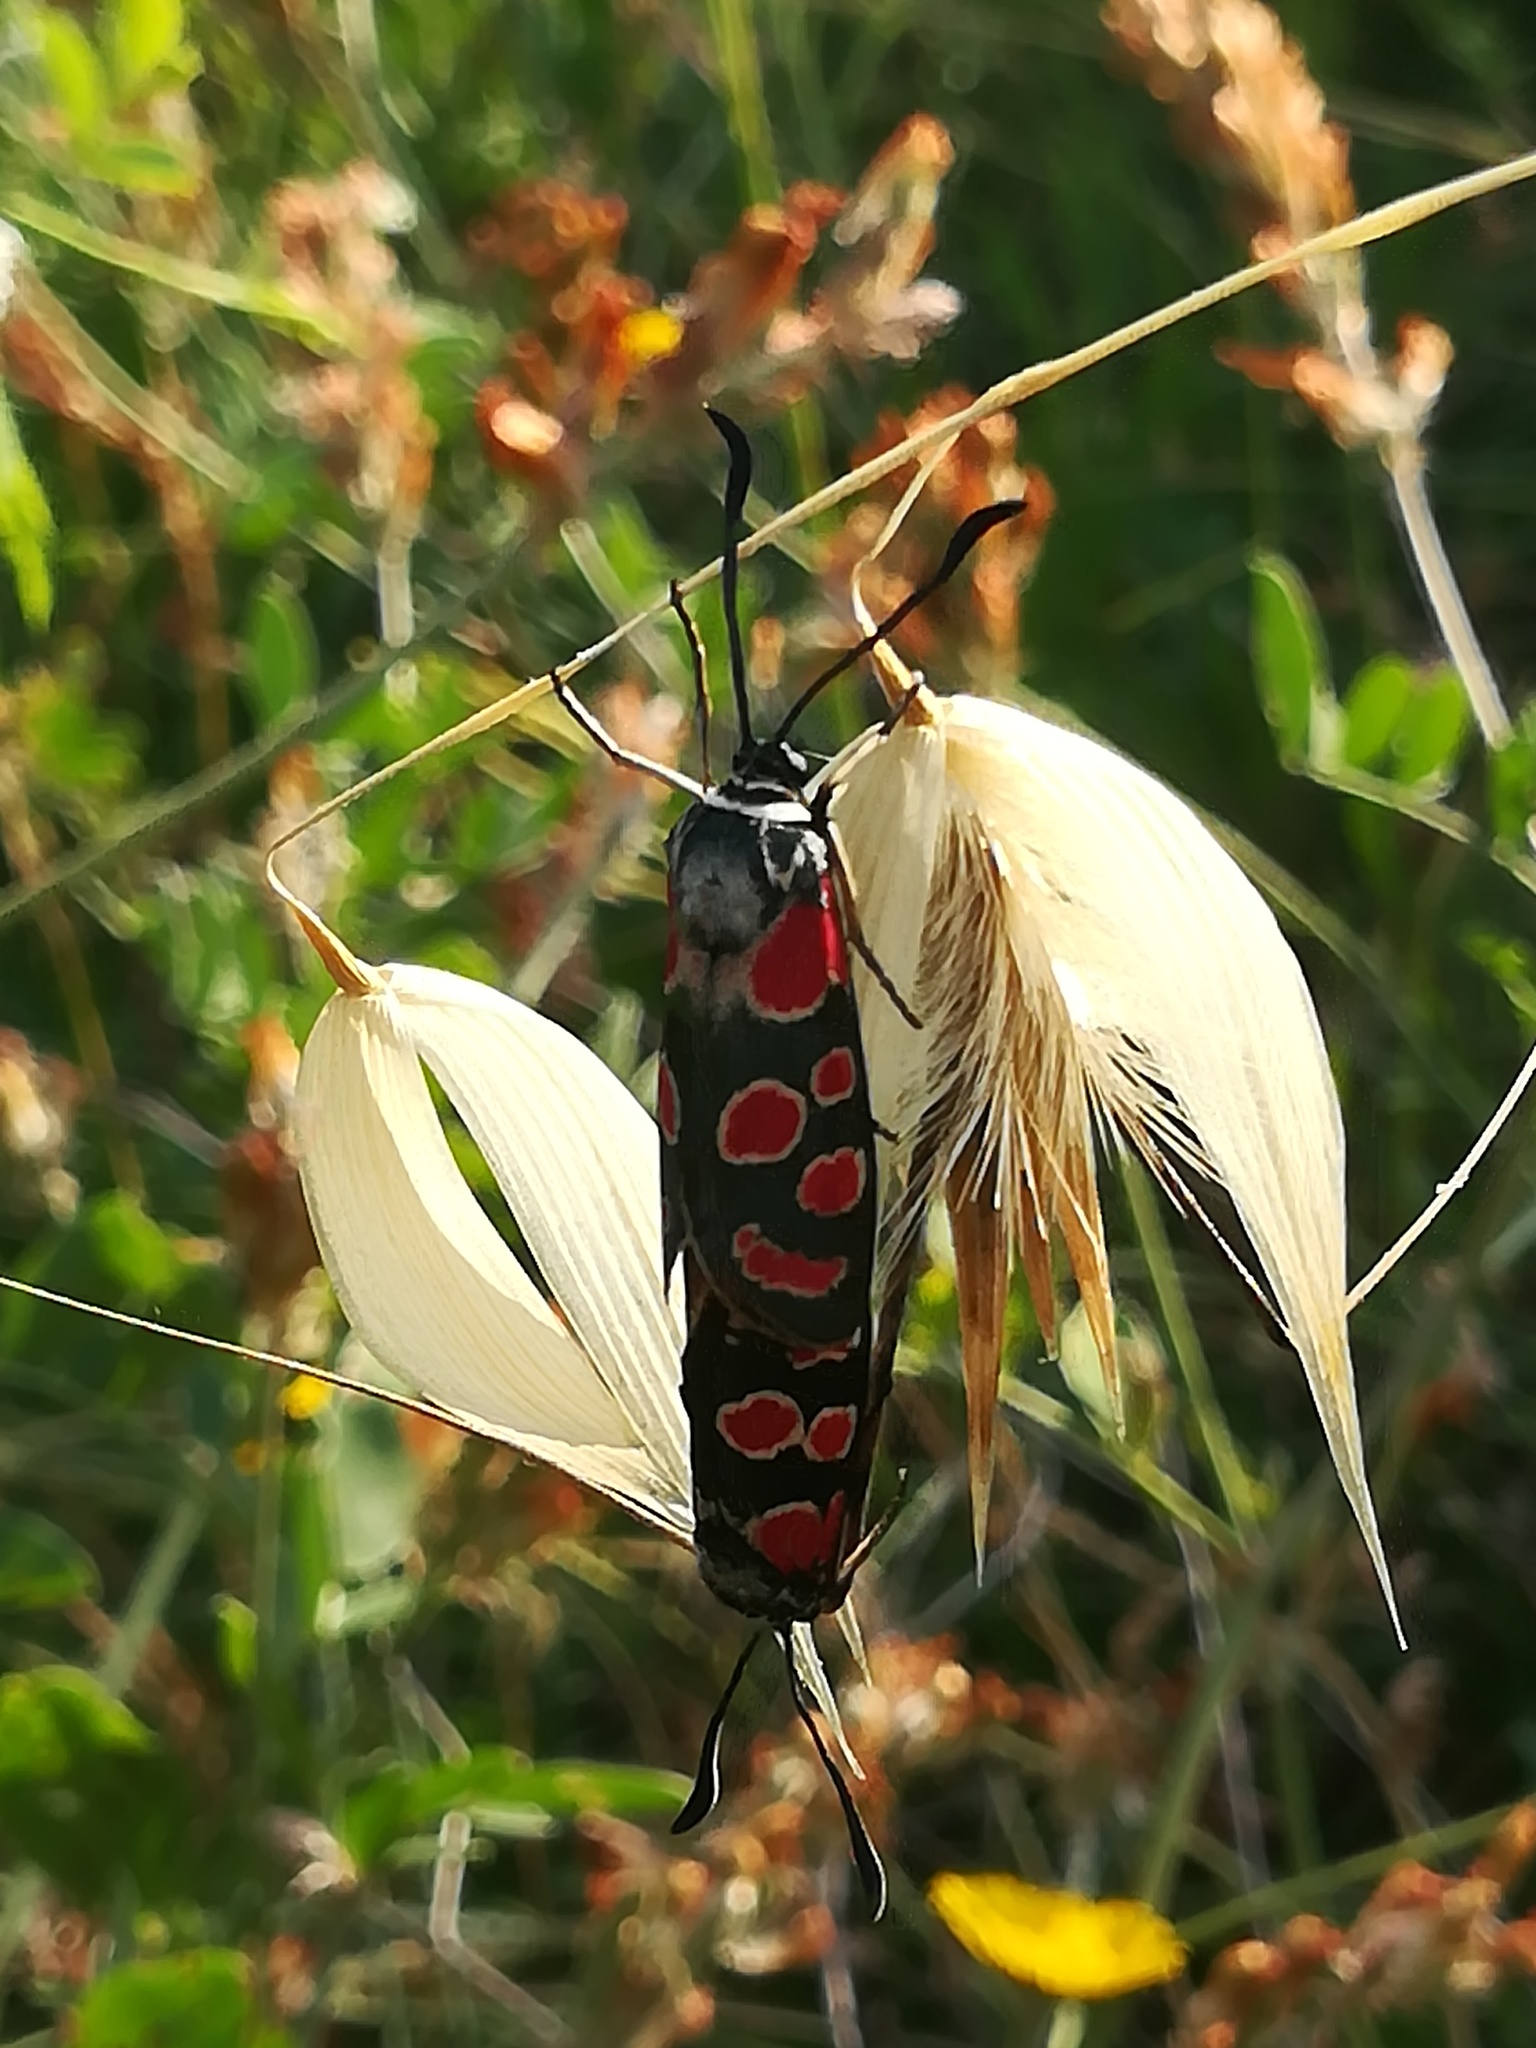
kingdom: Animalia
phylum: Arthropoda
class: Insecta
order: Lepidoptera
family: Zygaenidae
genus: Zygaena
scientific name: Zygaena carniolica
